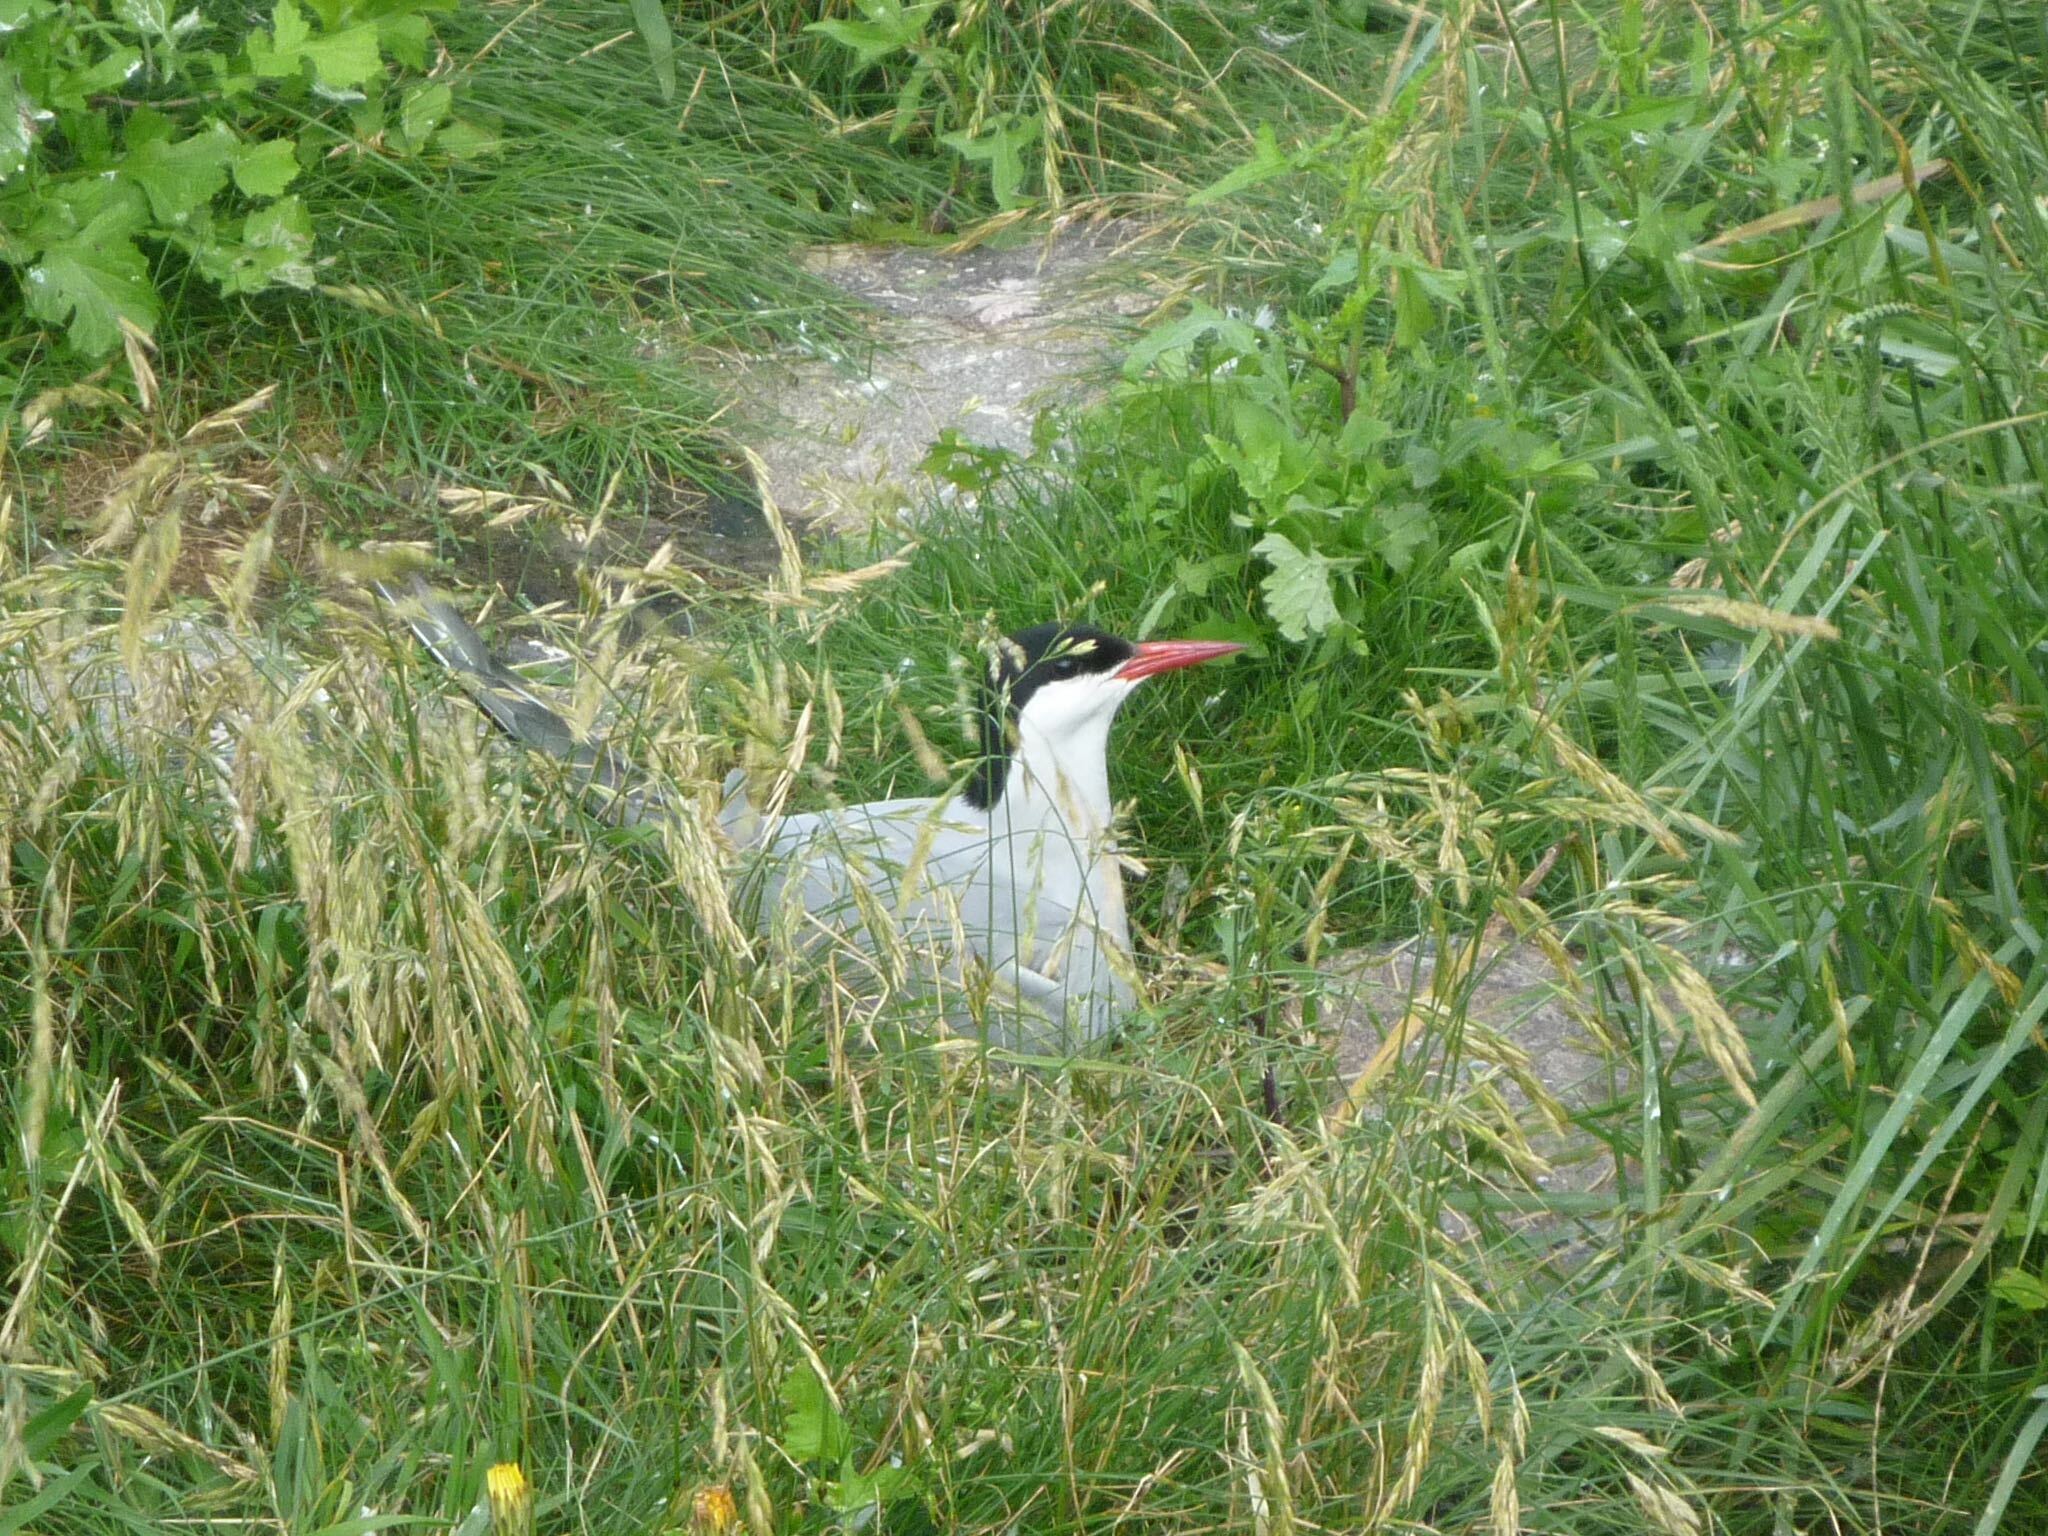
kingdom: Animalia
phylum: Chordata
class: Aves
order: Charadriiformes
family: Laridae
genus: Sterna
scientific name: Sterna paradisaea
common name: Arctic tern
